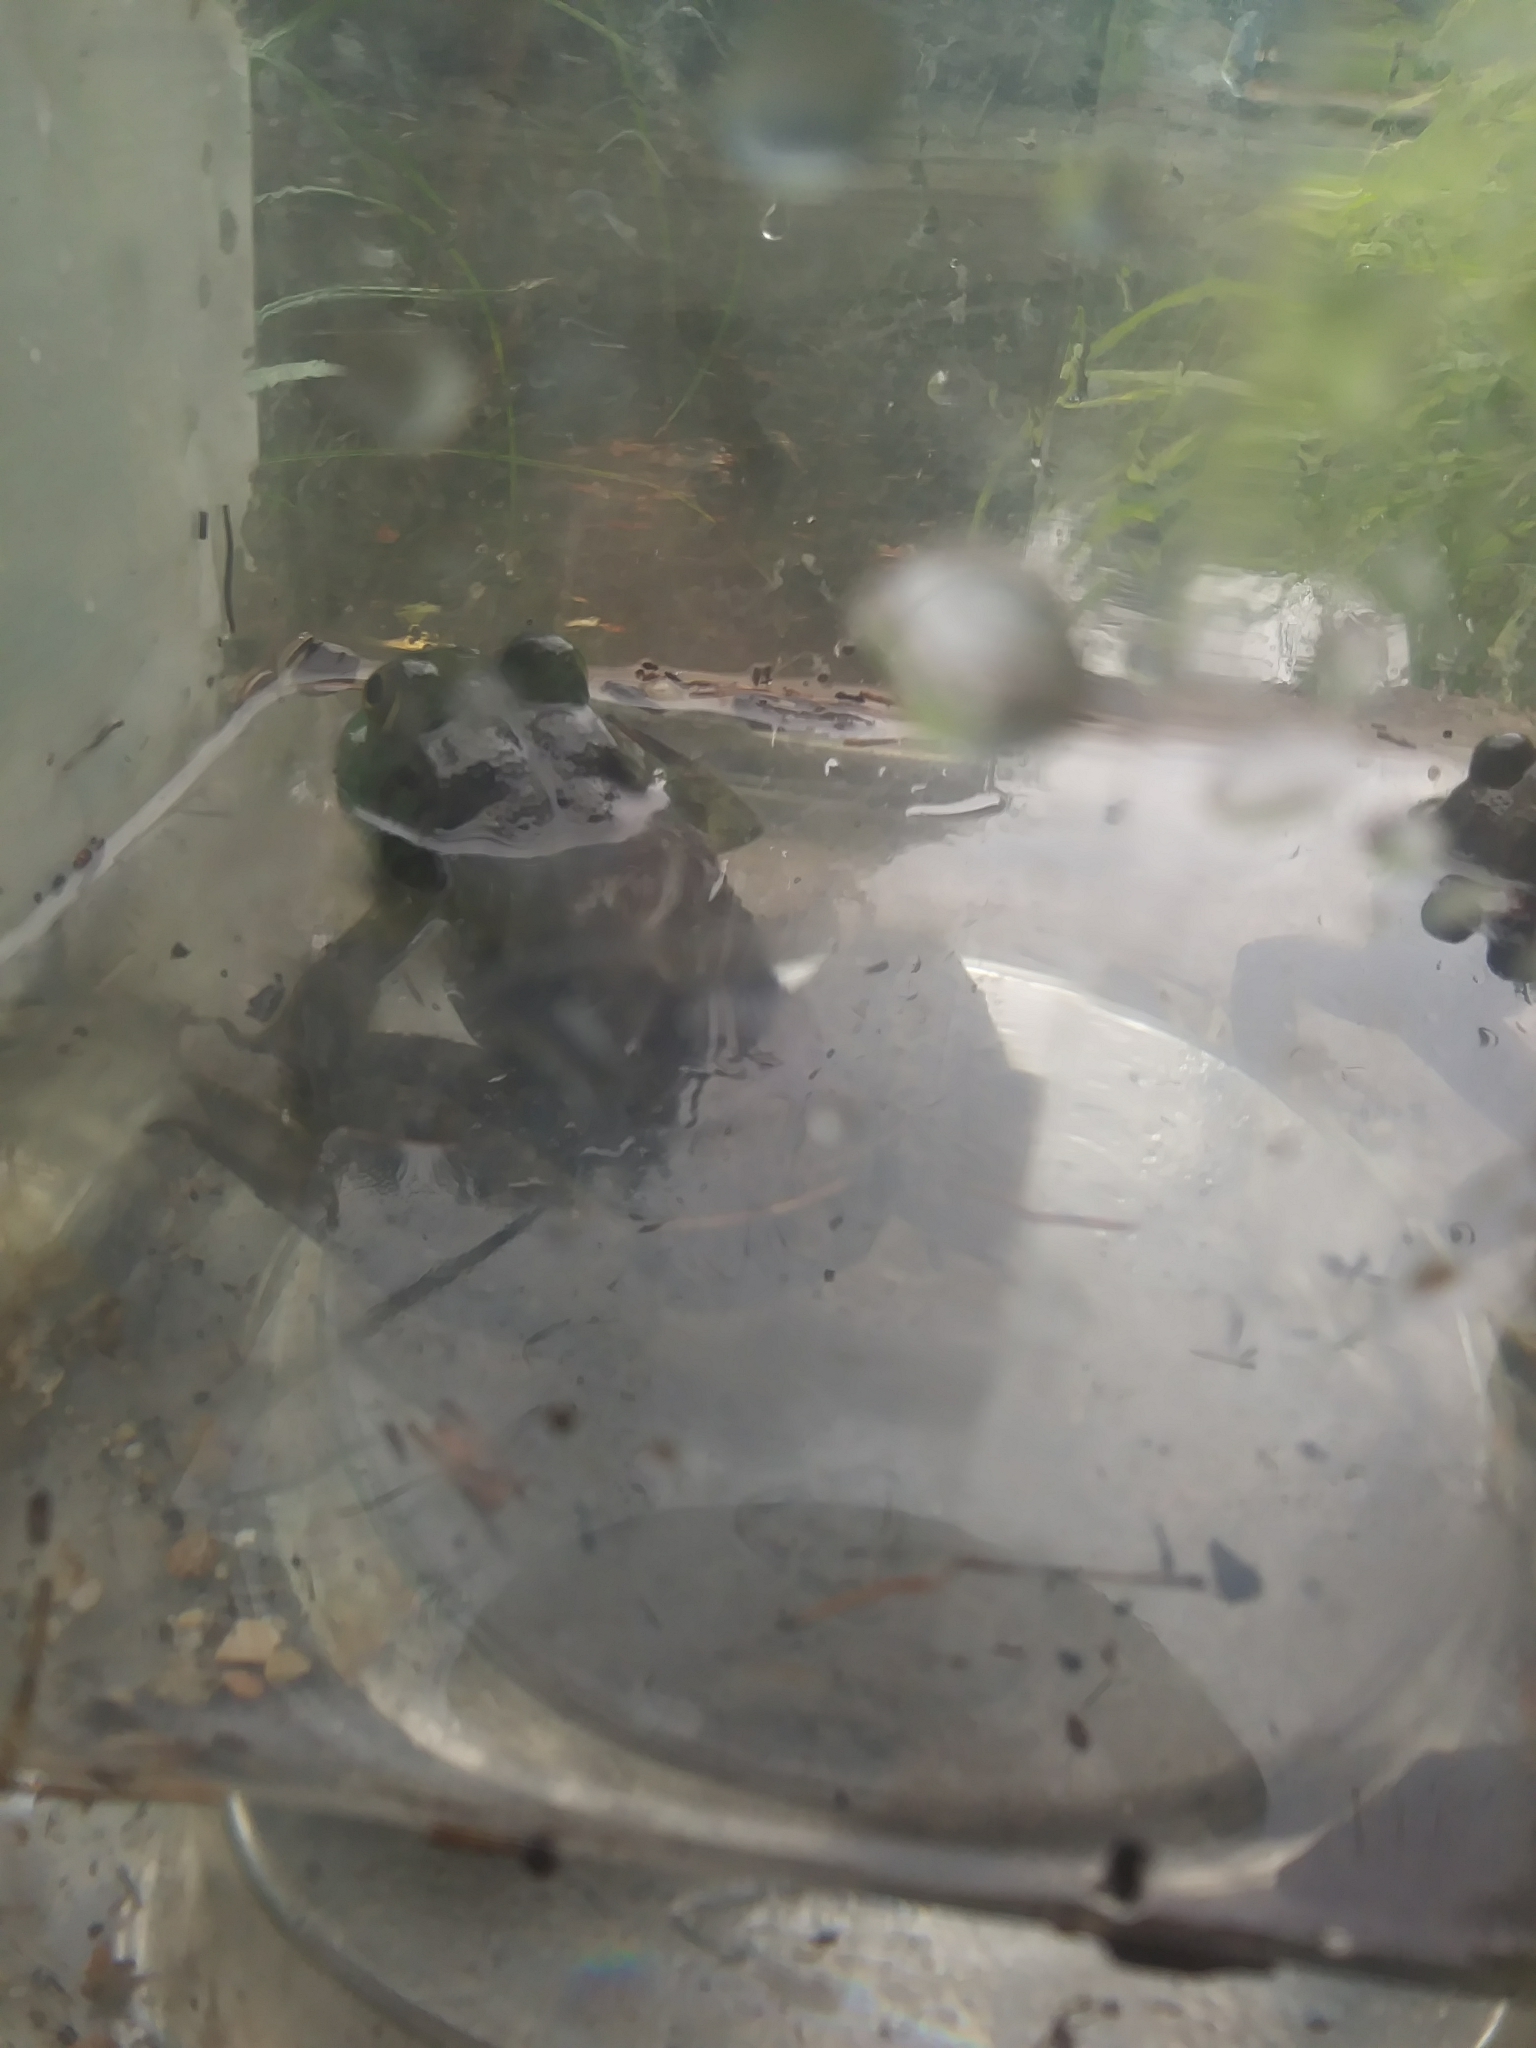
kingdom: Animalia
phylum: Chordata
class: Amphibia
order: Anura
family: Ranidae
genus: Lithobates
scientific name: Lithobates catesbeianus
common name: American bullfrog
